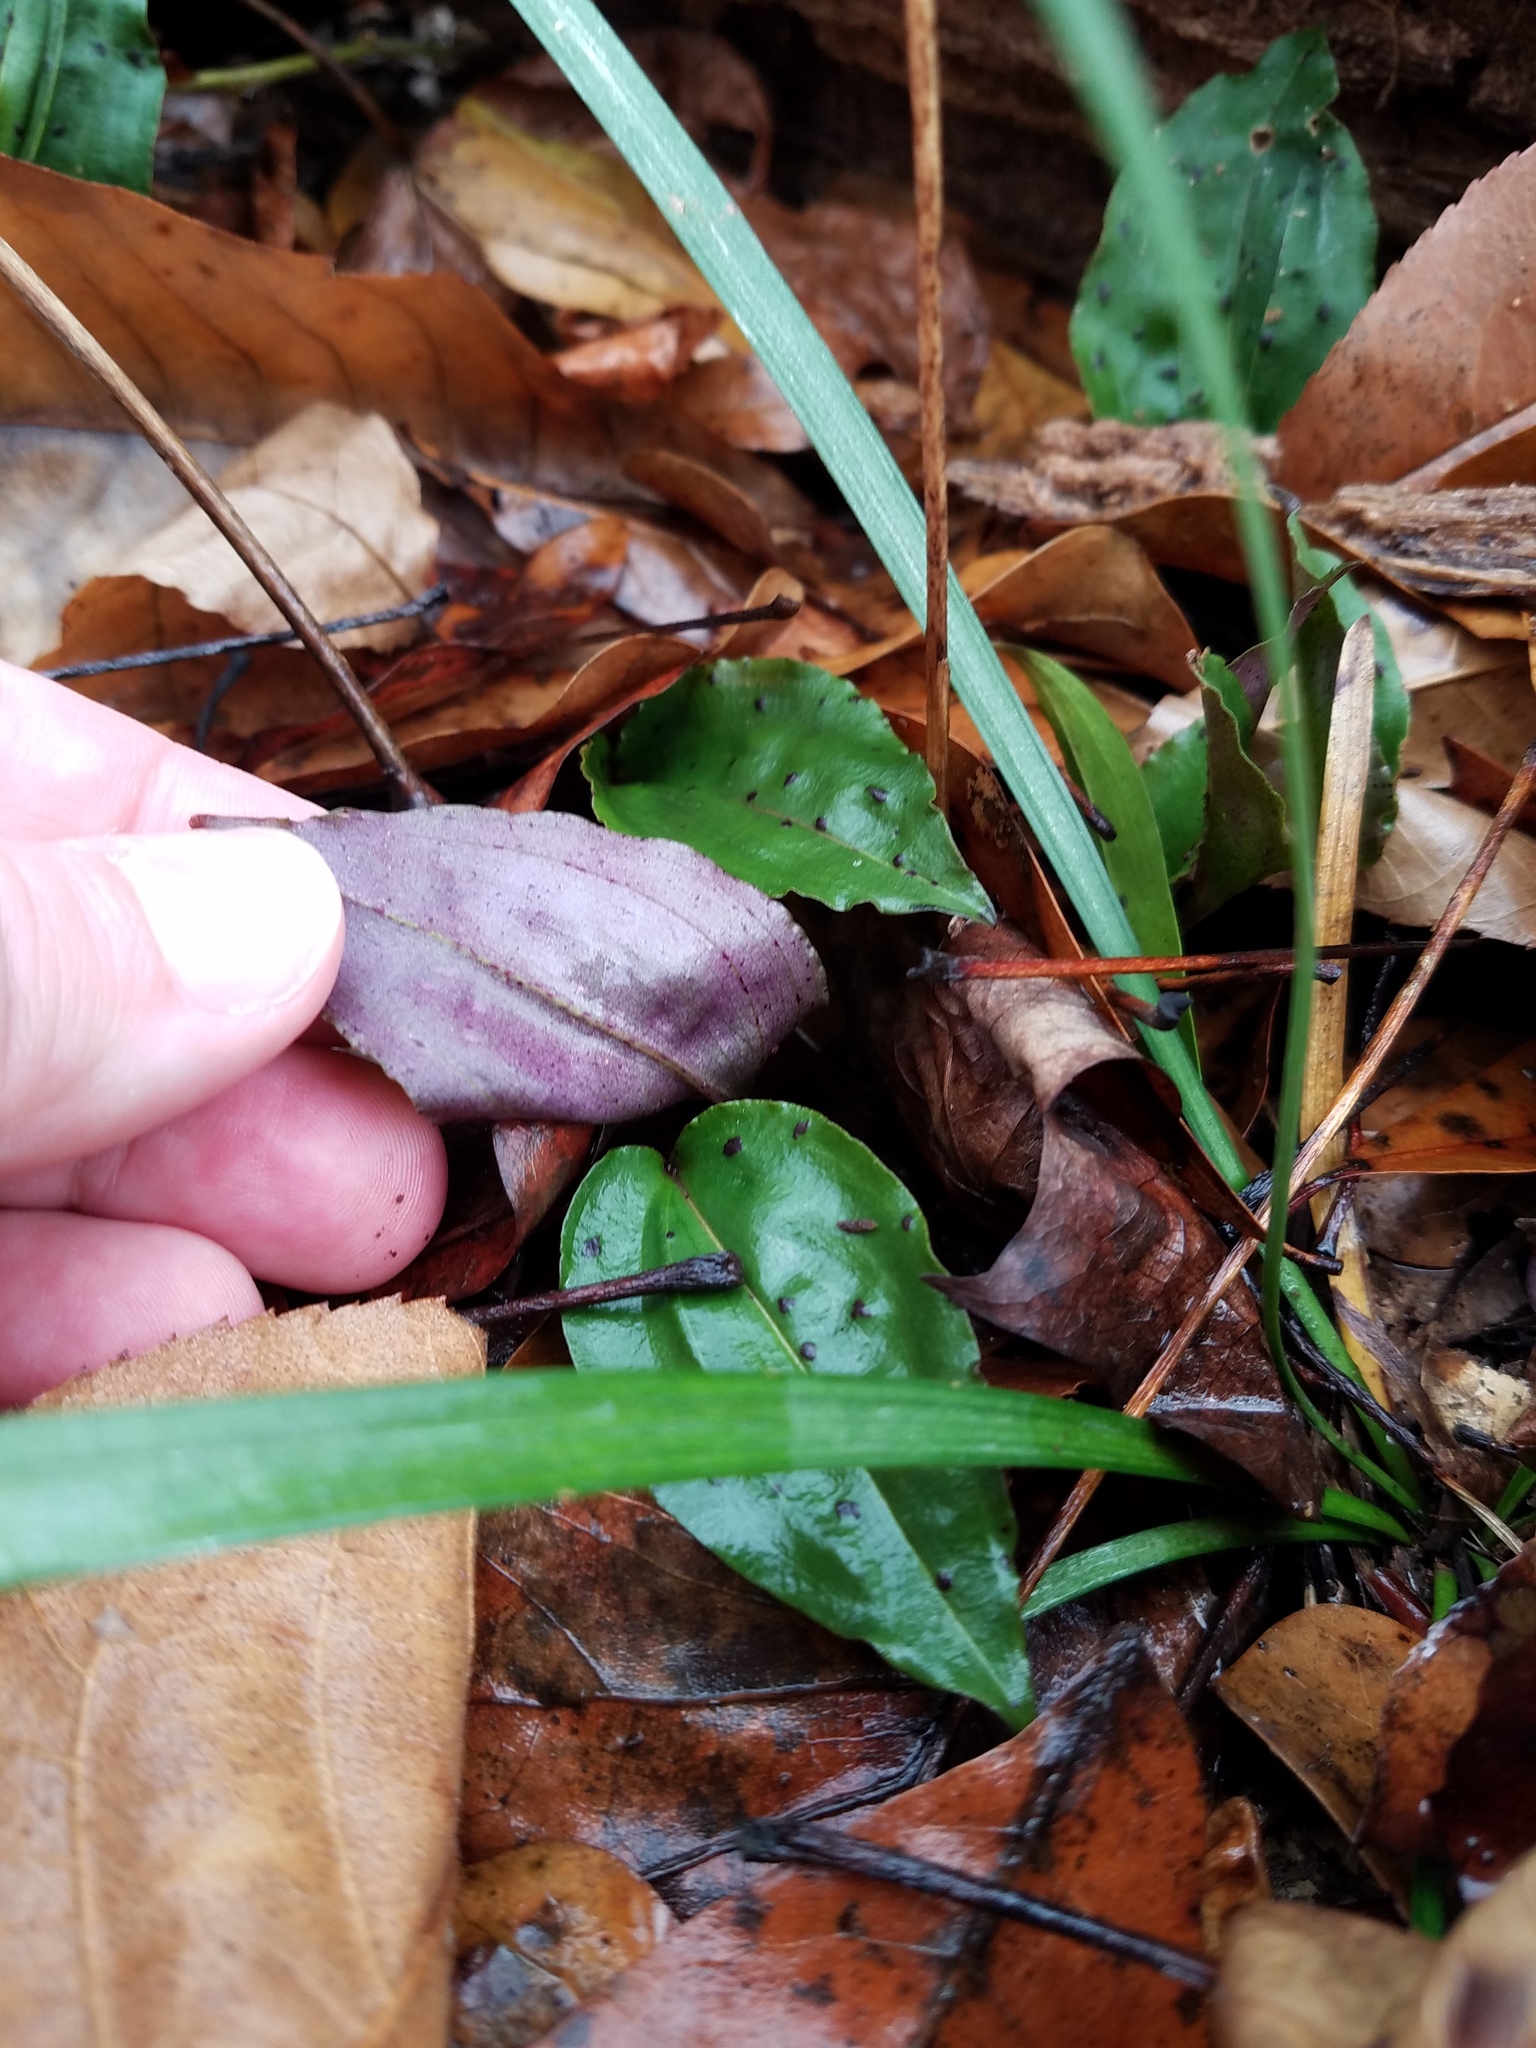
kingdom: Plantae
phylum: Tracheophyta
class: Liliopsida
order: Asparagales
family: Orchidaceae
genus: Tipularia
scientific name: Tipularia discolor
